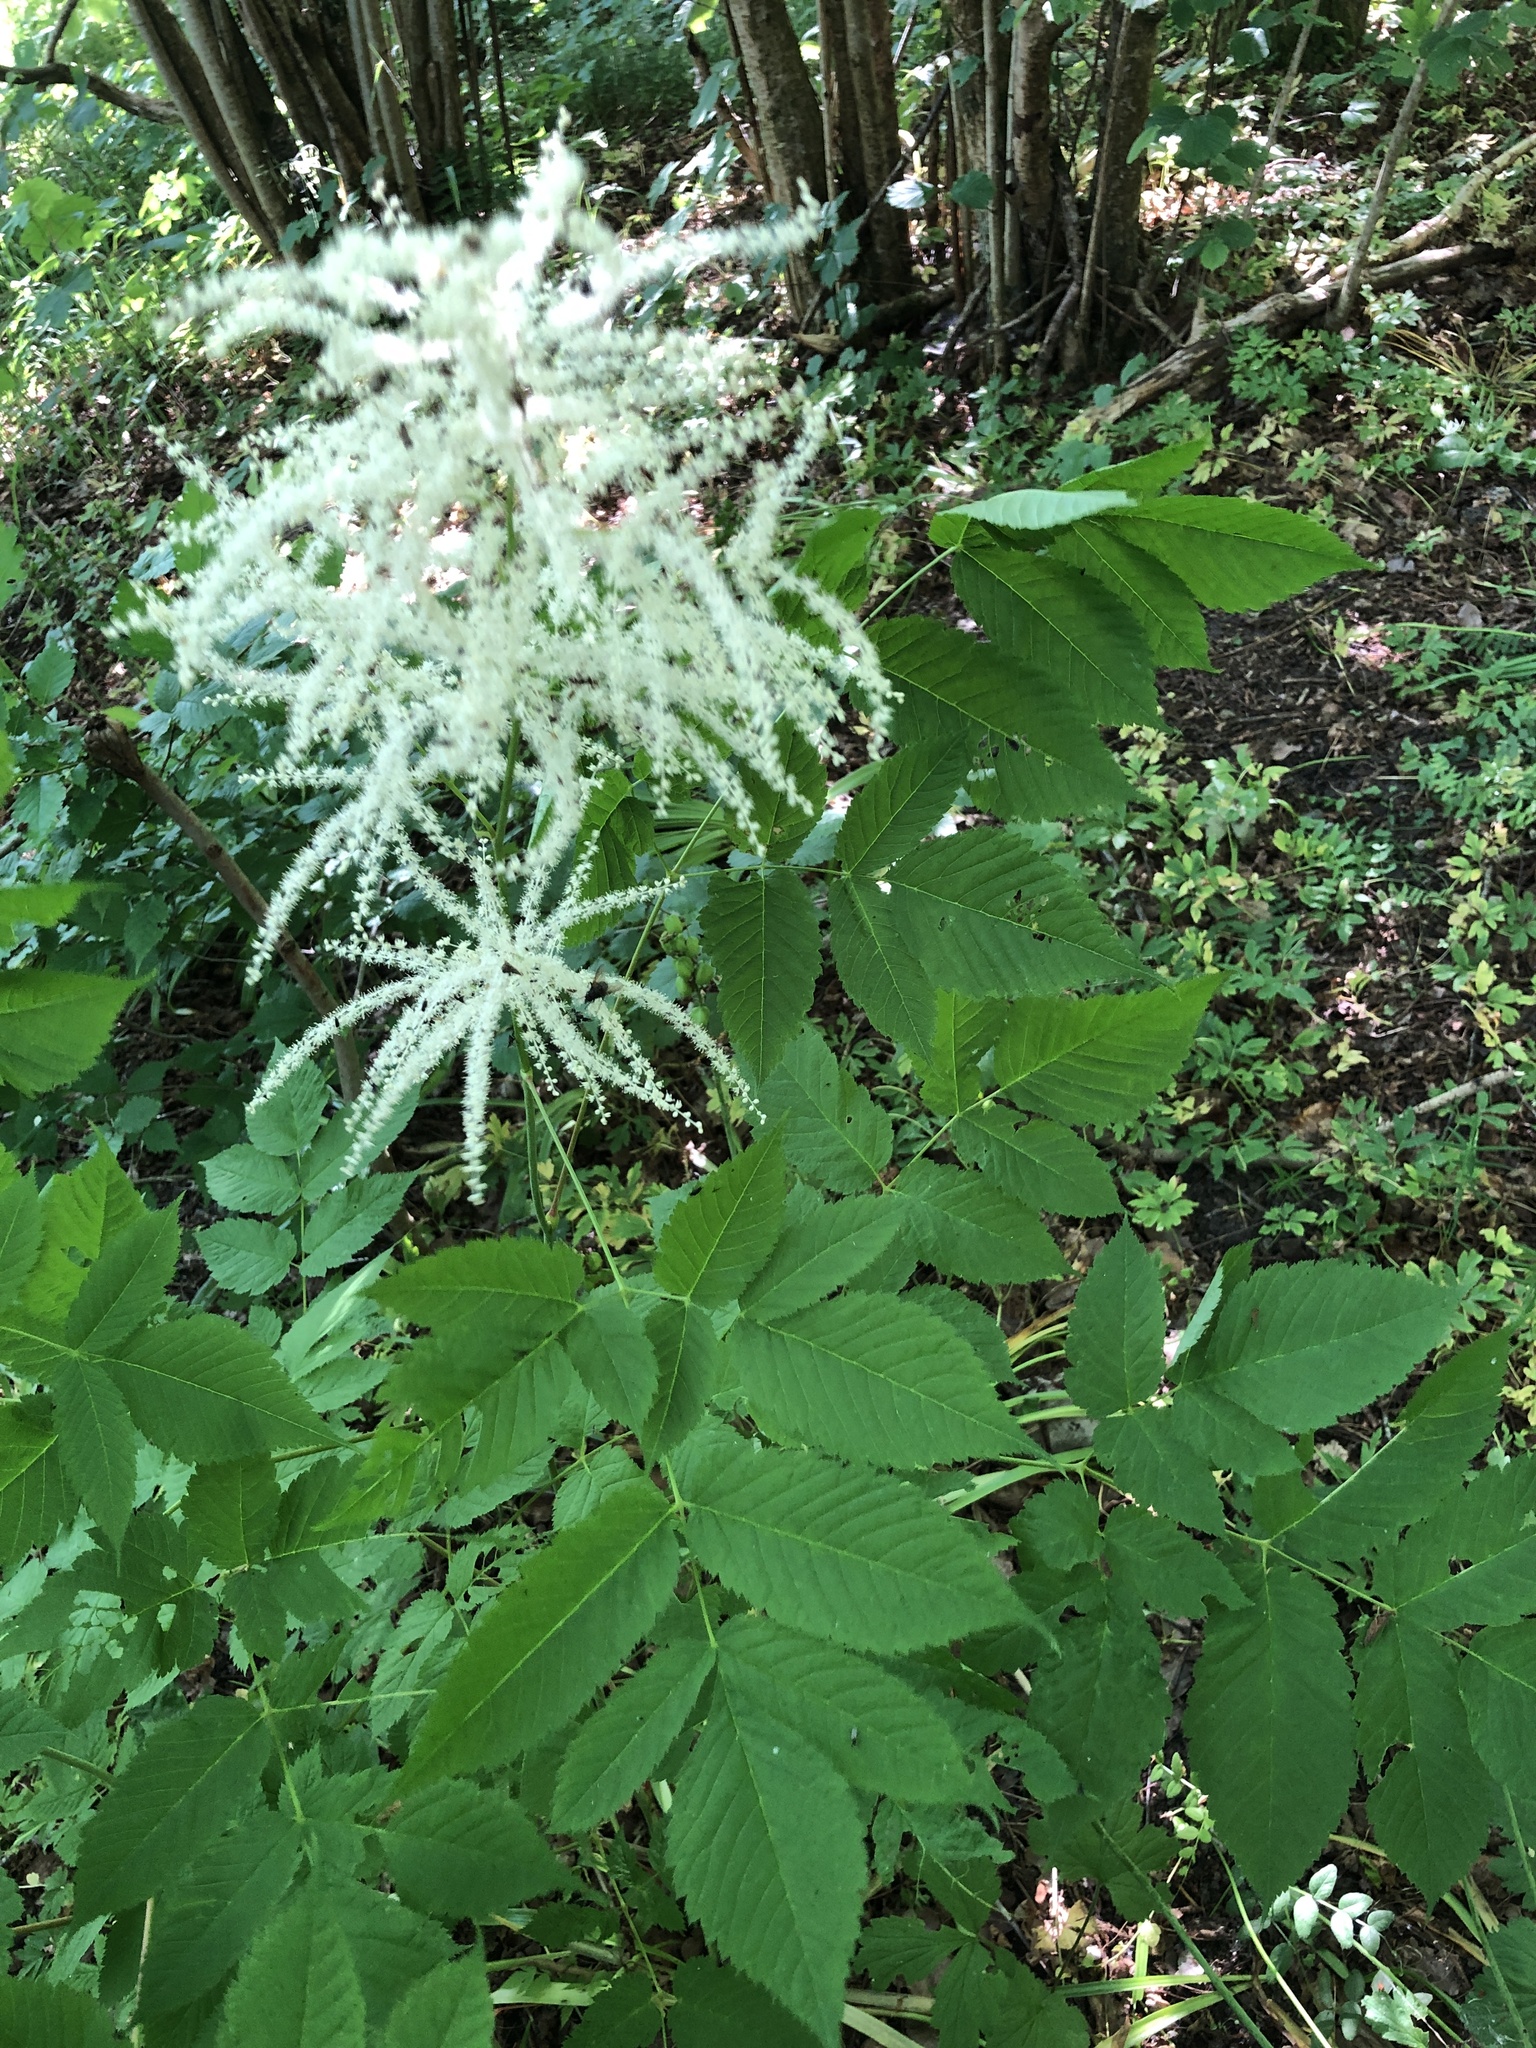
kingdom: Plantae
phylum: Tracheophyta
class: Magnoliopsida
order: Rosales
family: Rosaceae
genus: Aruncus
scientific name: Aruncus dioicus
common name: Buck's-beard
